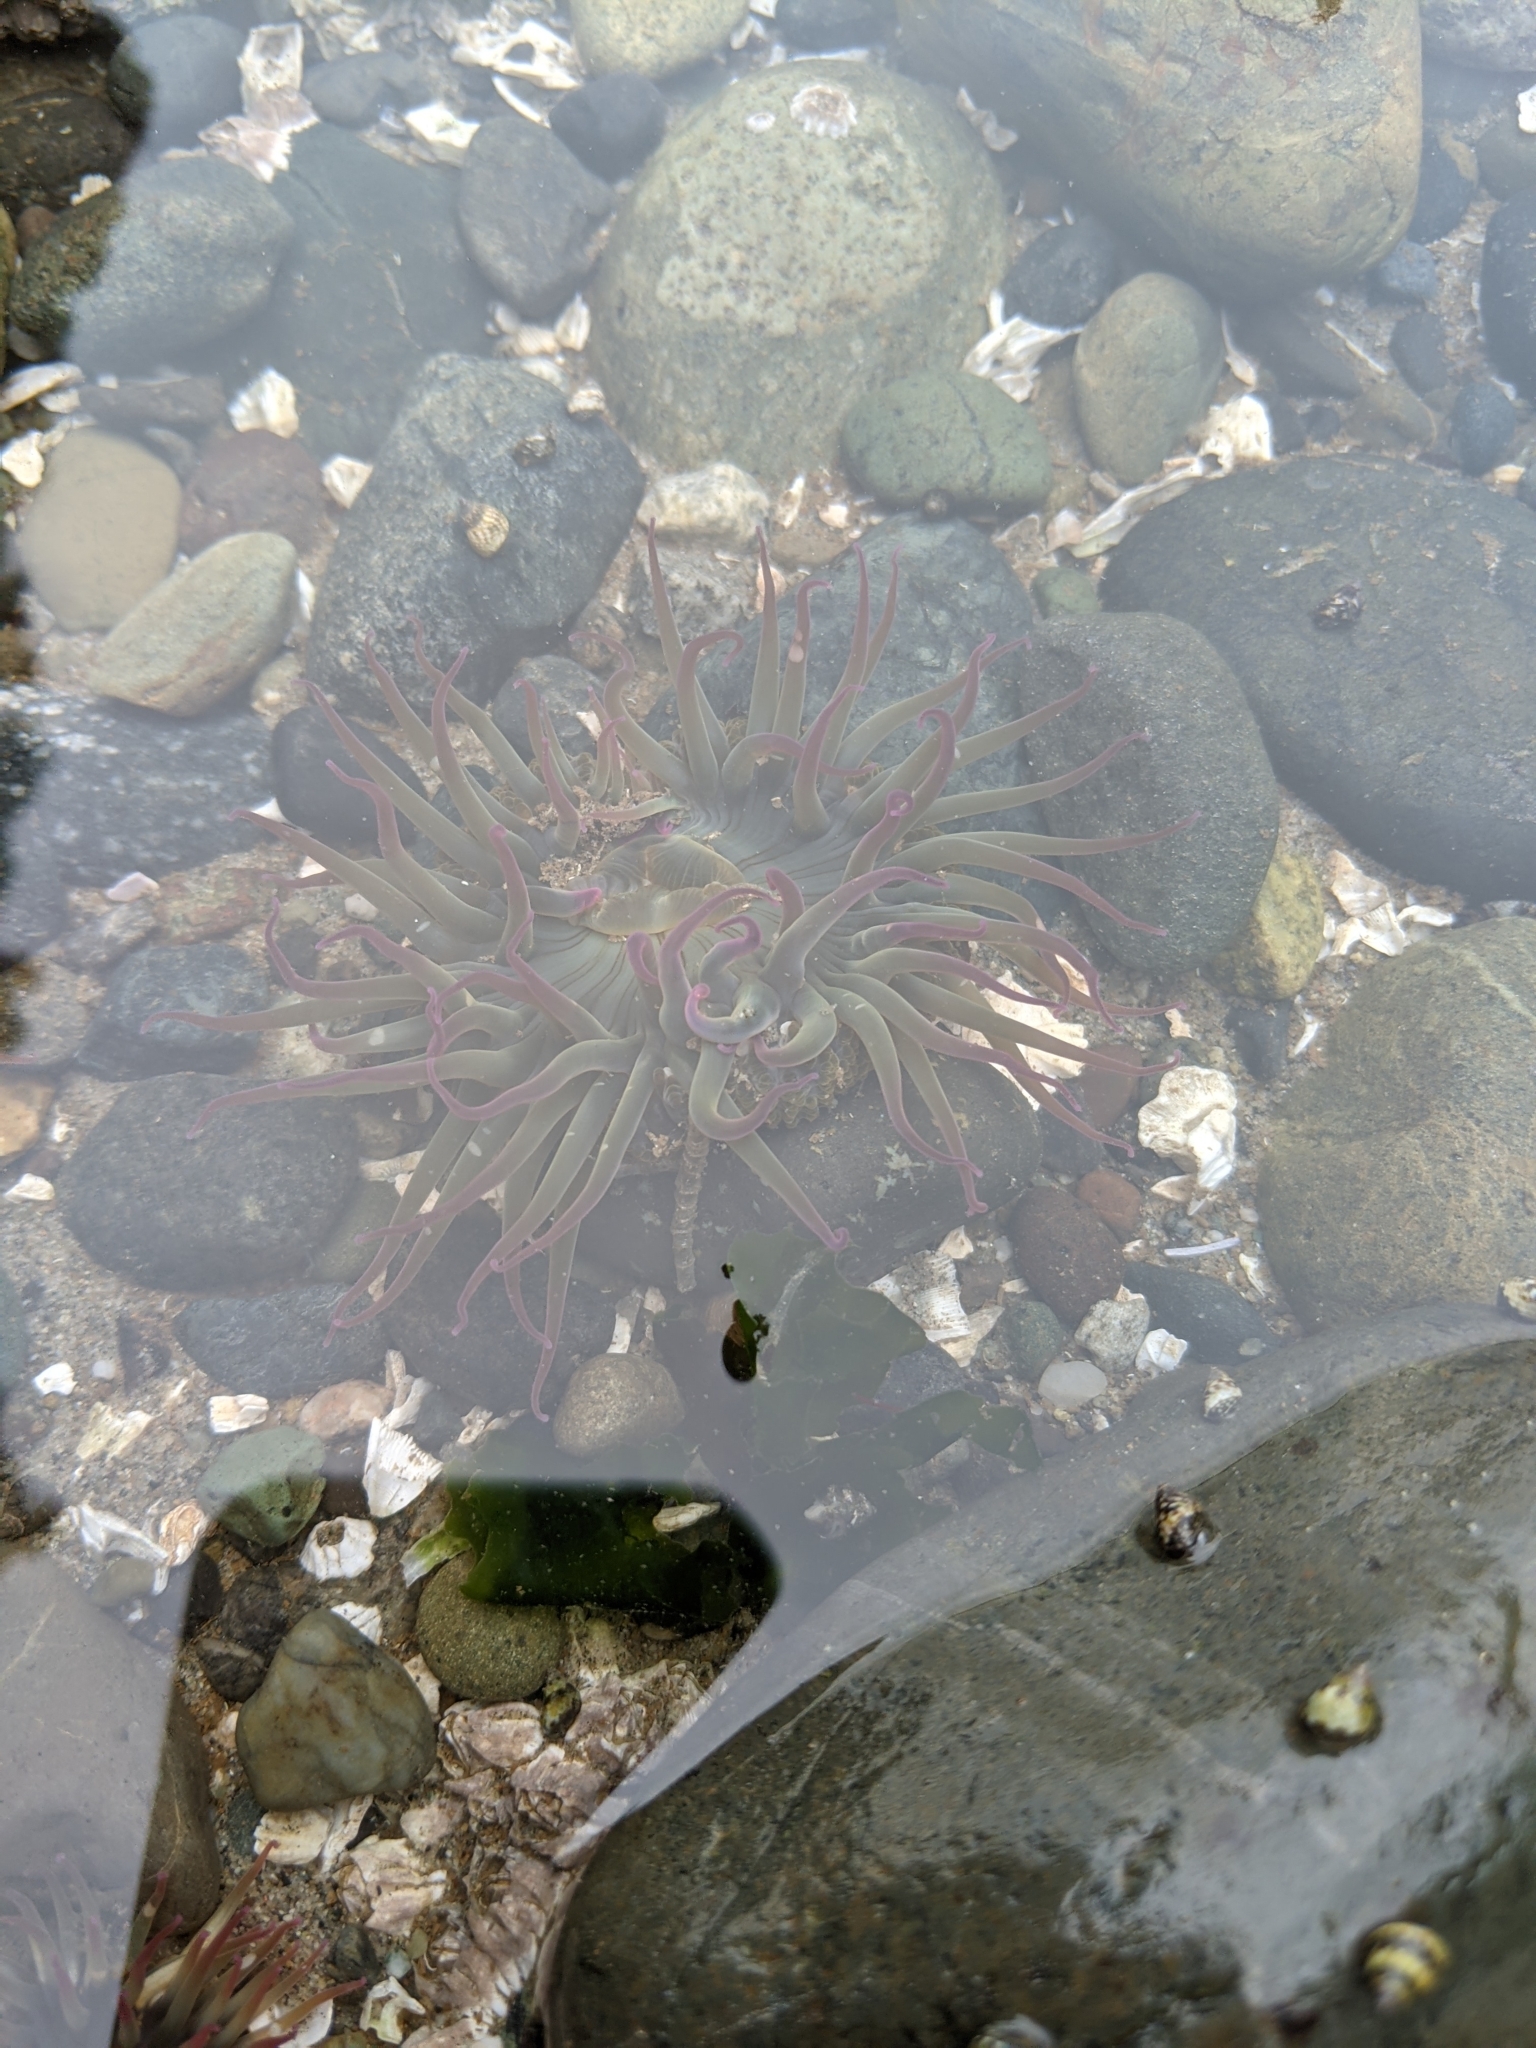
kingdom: Animalia
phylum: Cnidaria
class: Anthozoa
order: Actiniaria
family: Actiniidae
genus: Anthopleura
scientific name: Anthopleura elegantissima
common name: Clonal anemone
